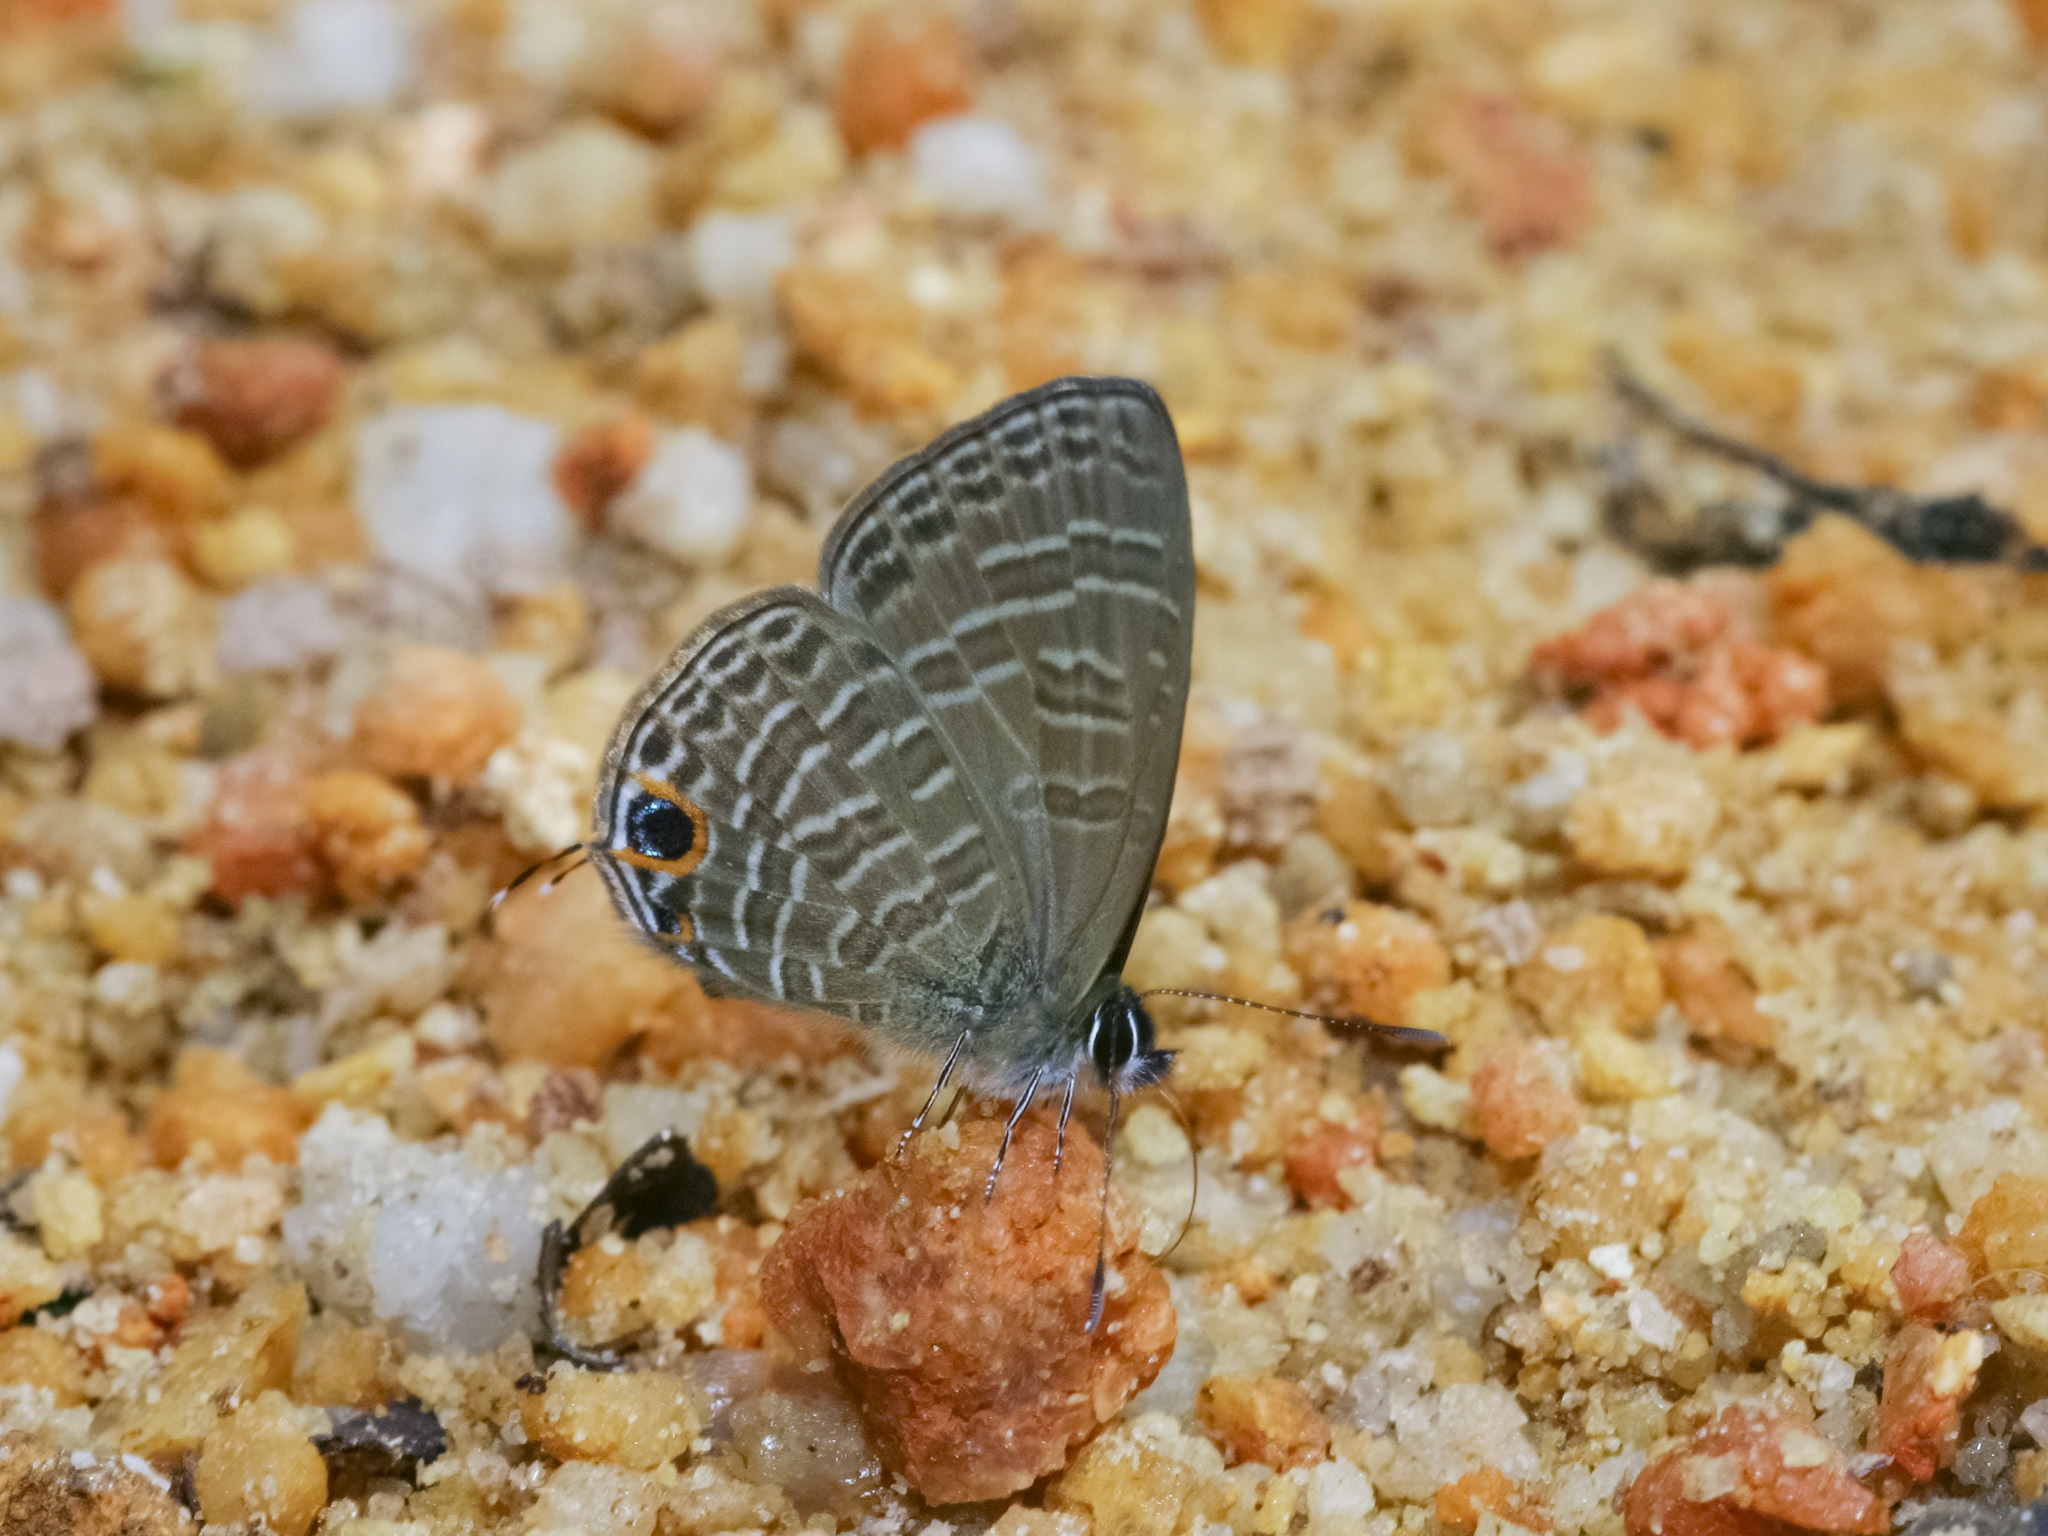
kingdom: Animalia
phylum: Arthropoda
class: Insecta
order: Lepidoptera
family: Lycaenidae
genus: Nacaduba
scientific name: Nacaduba berenice
